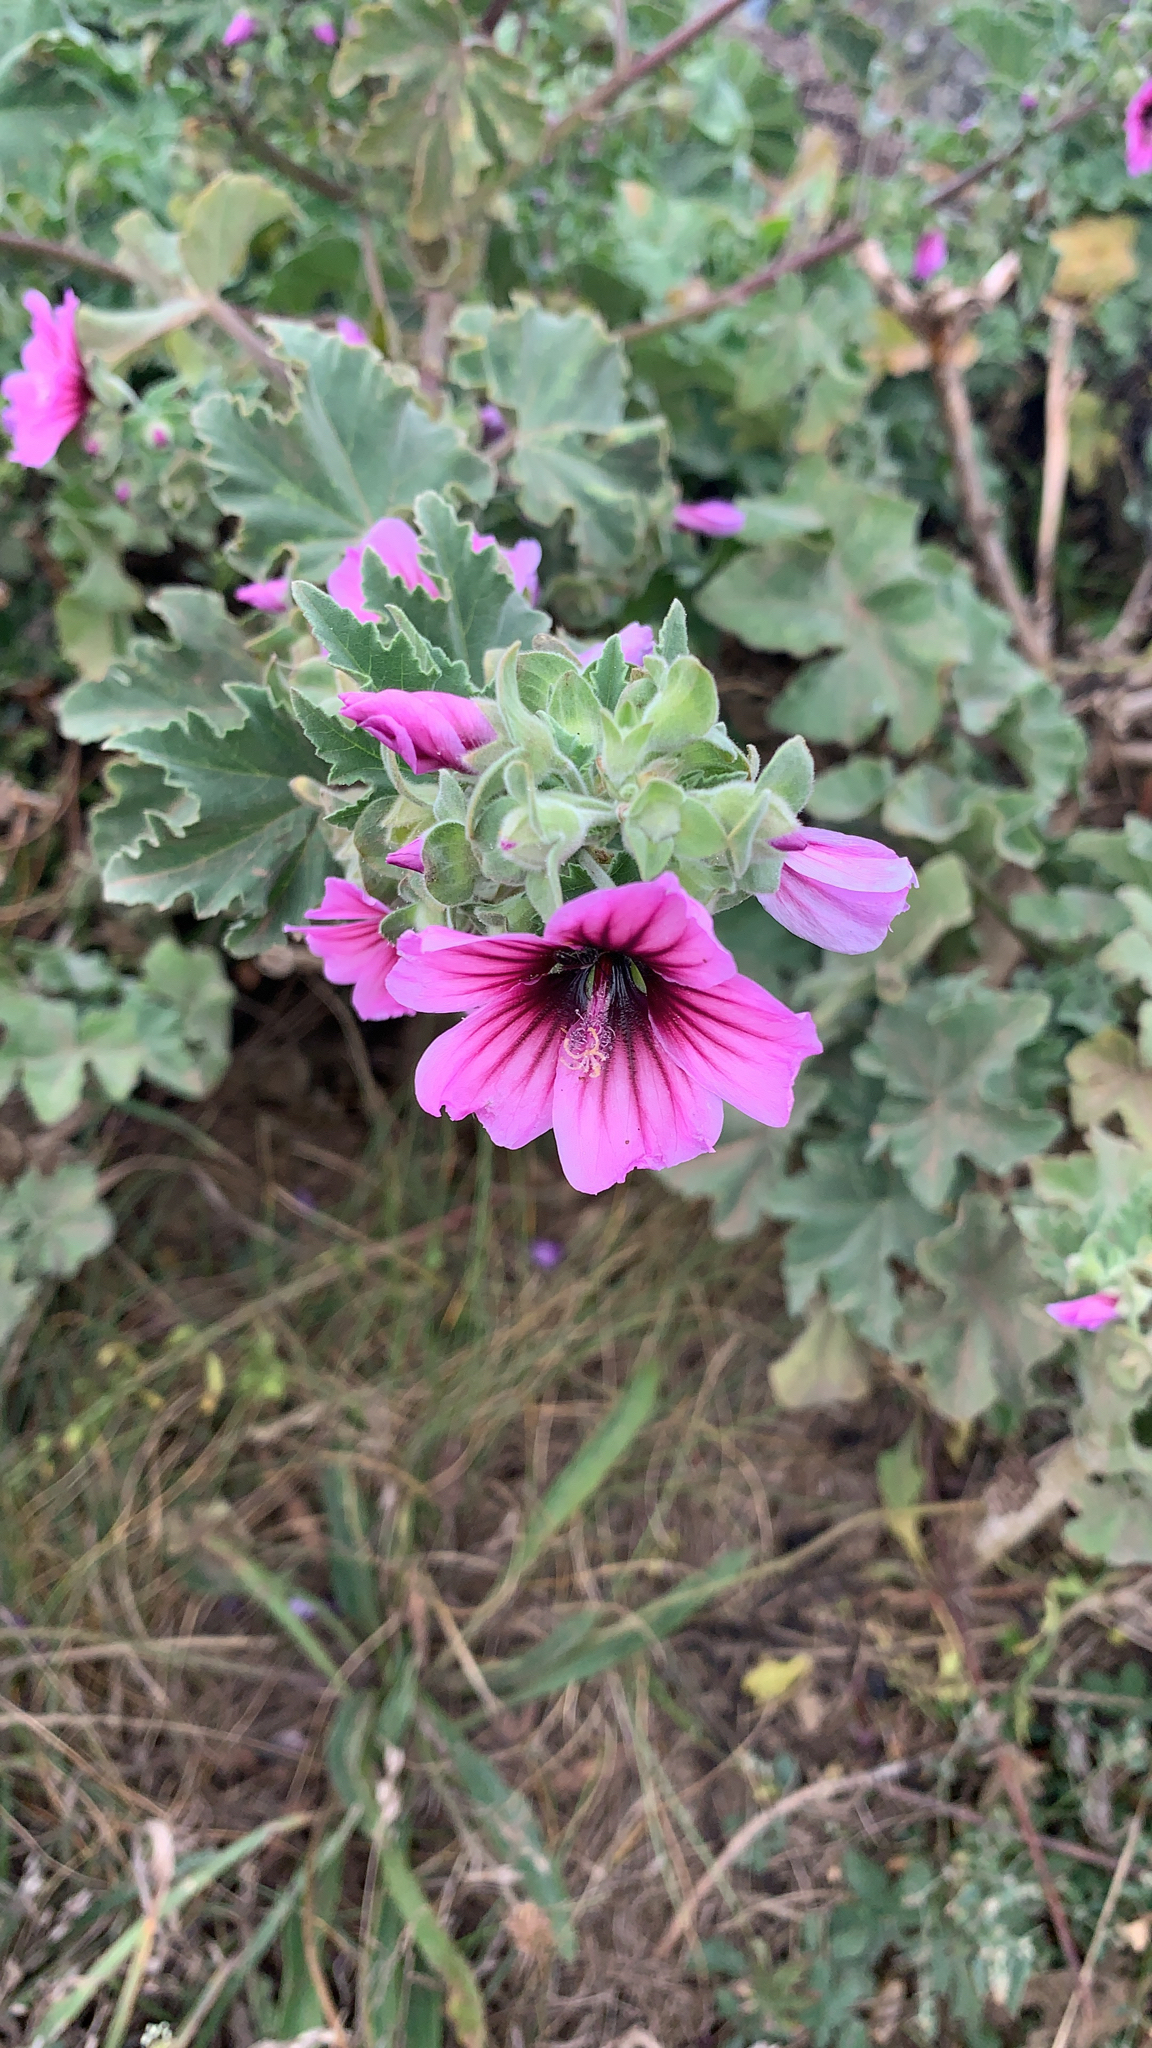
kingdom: Plantae
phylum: Tracheophyta
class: Magnoliopsida
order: Malvales
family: Malvaceae
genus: Malva
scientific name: Malva arborea
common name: Tree mallow
